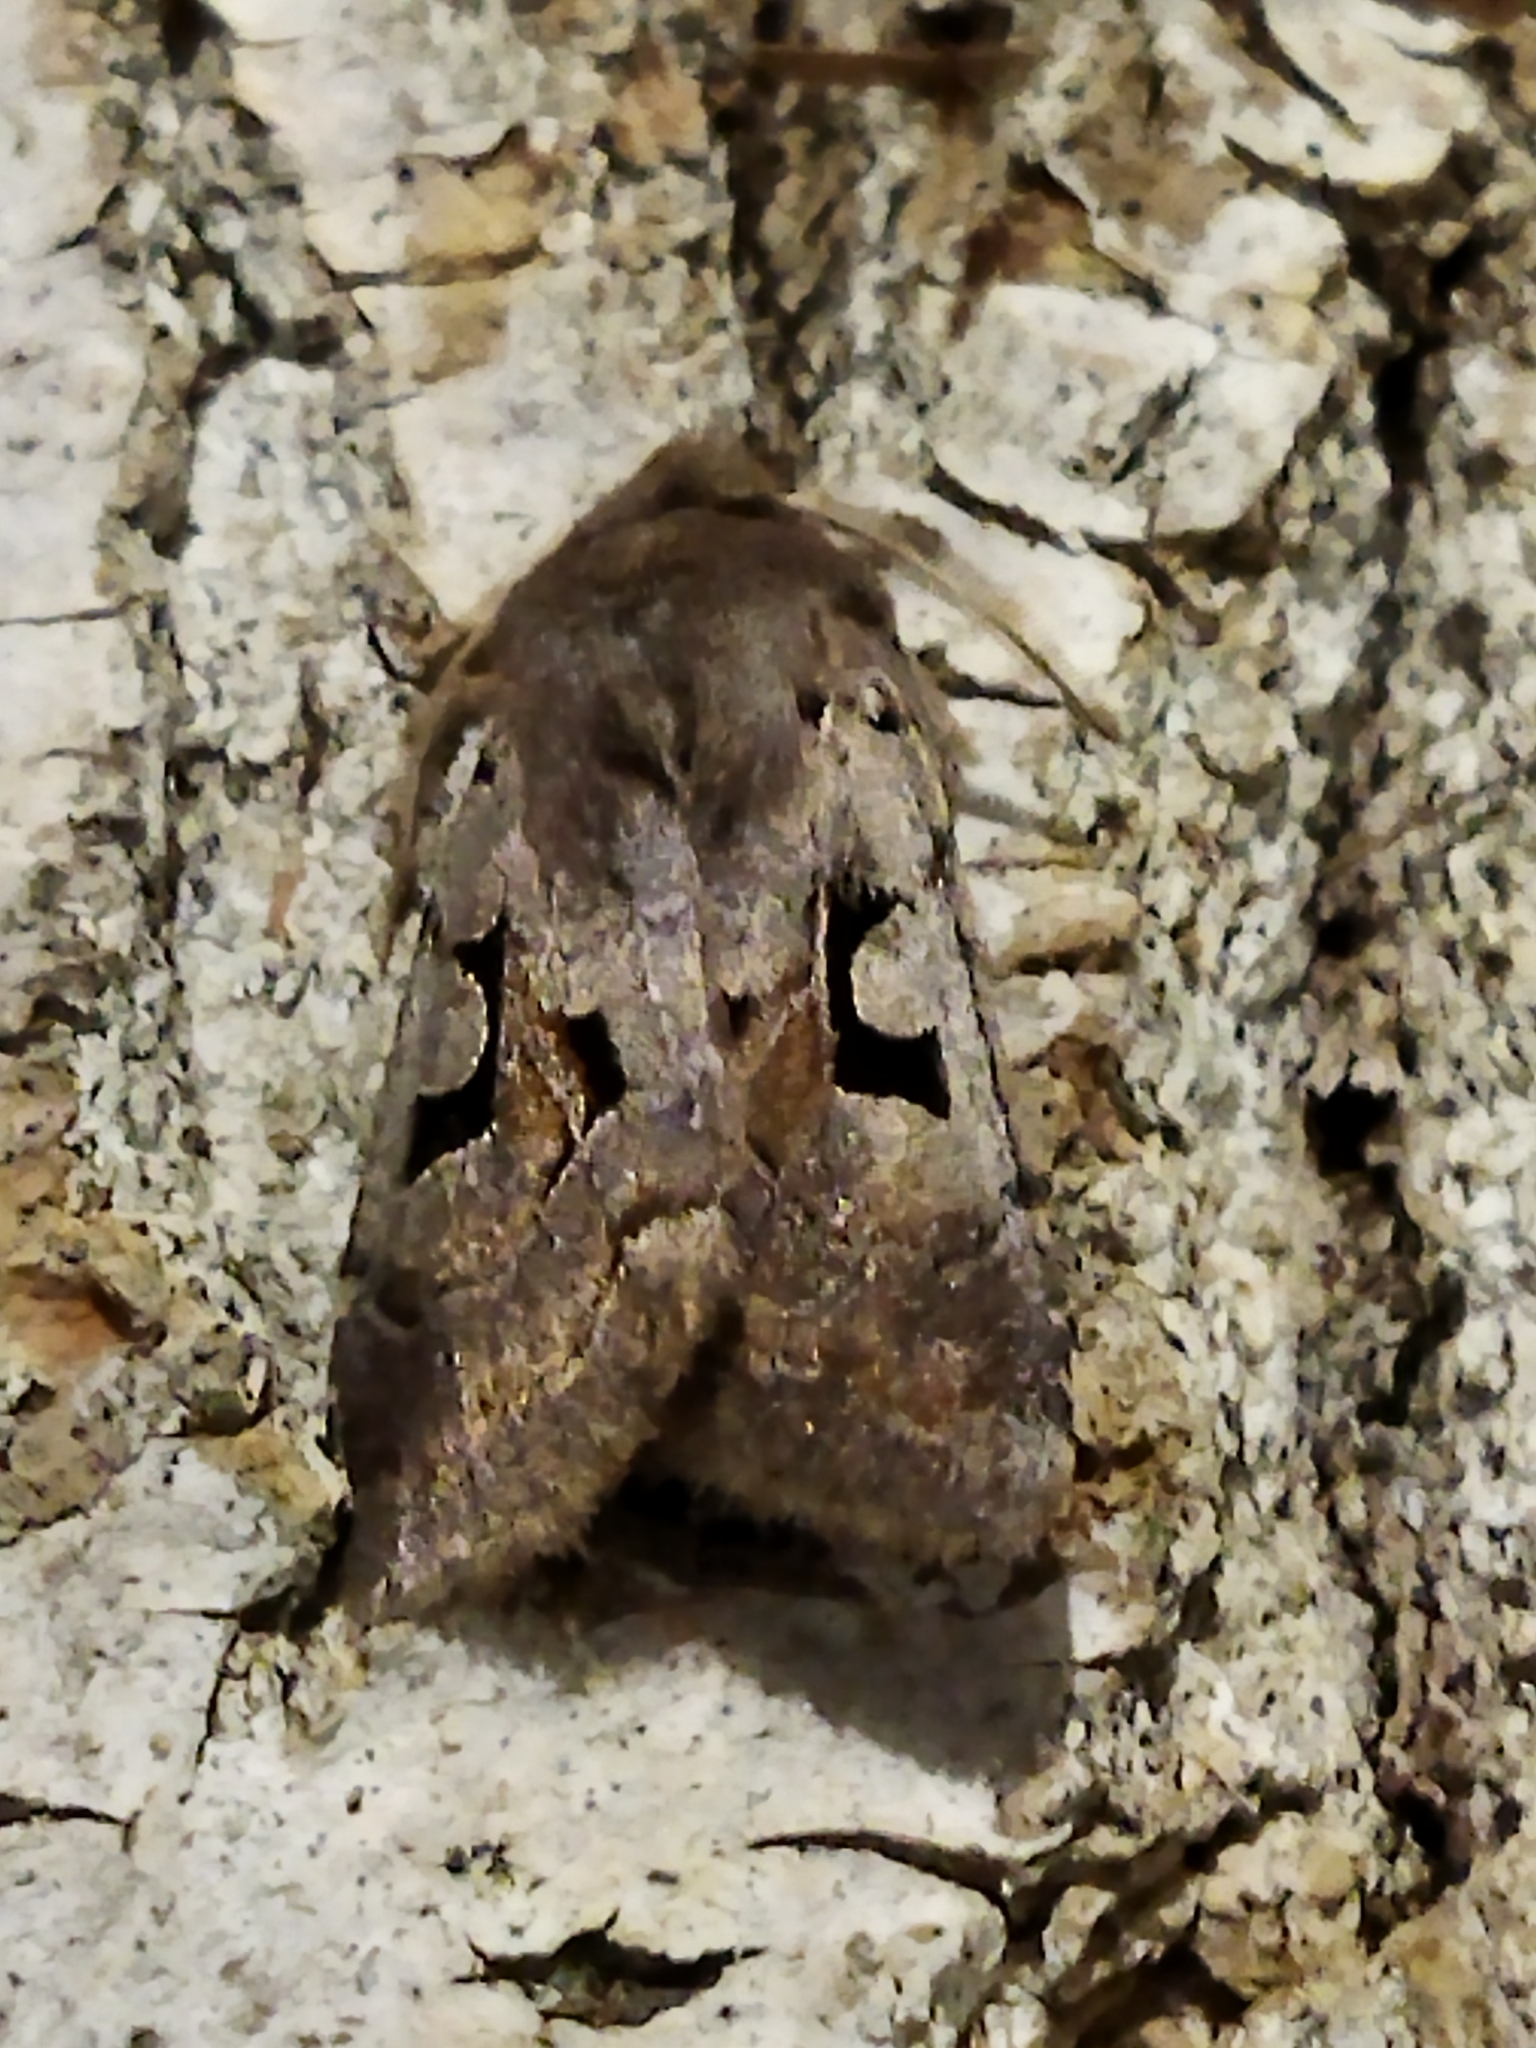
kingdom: Animalia
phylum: Arthropoda
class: Insecta
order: Lepidoptera
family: Noctuidae
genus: Orthosia
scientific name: Orthosia gothica
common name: Hebrew character
